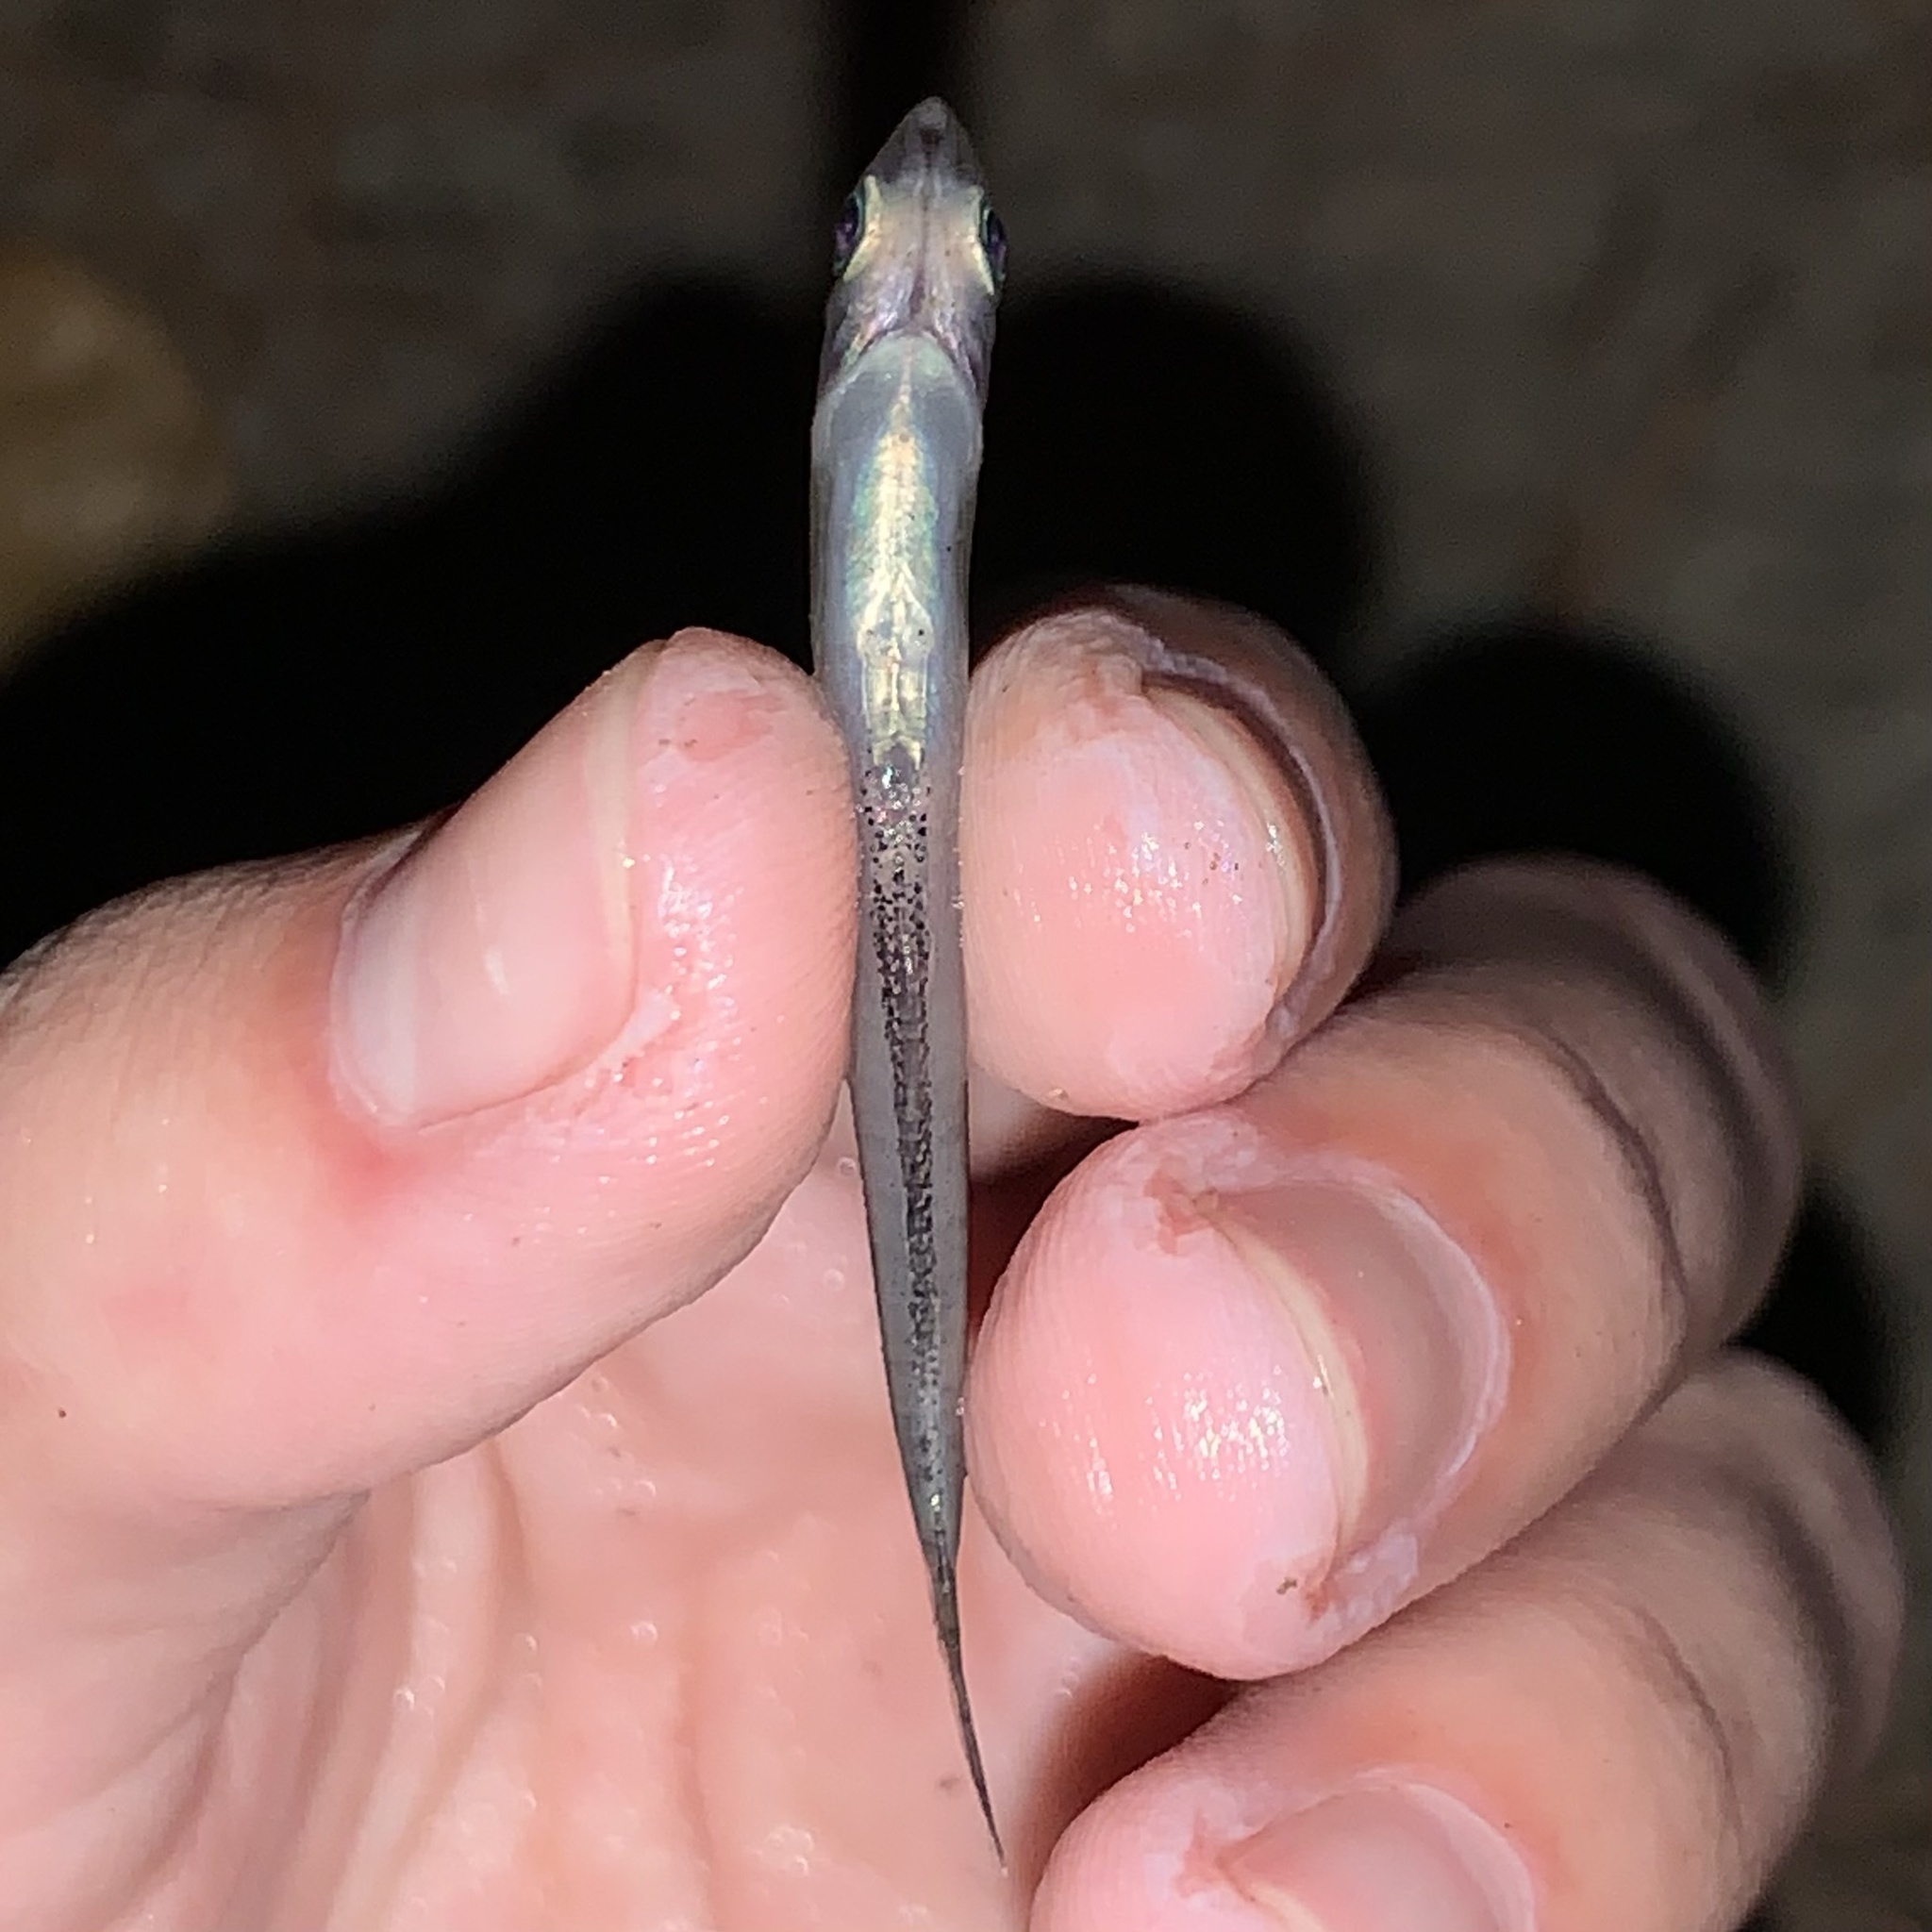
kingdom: Animalia
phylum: Chordata
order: Atheriniformes
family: Atherinopsidae
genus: Labidesthes
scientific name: Labidesthes sicculus
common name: Brook silverside
